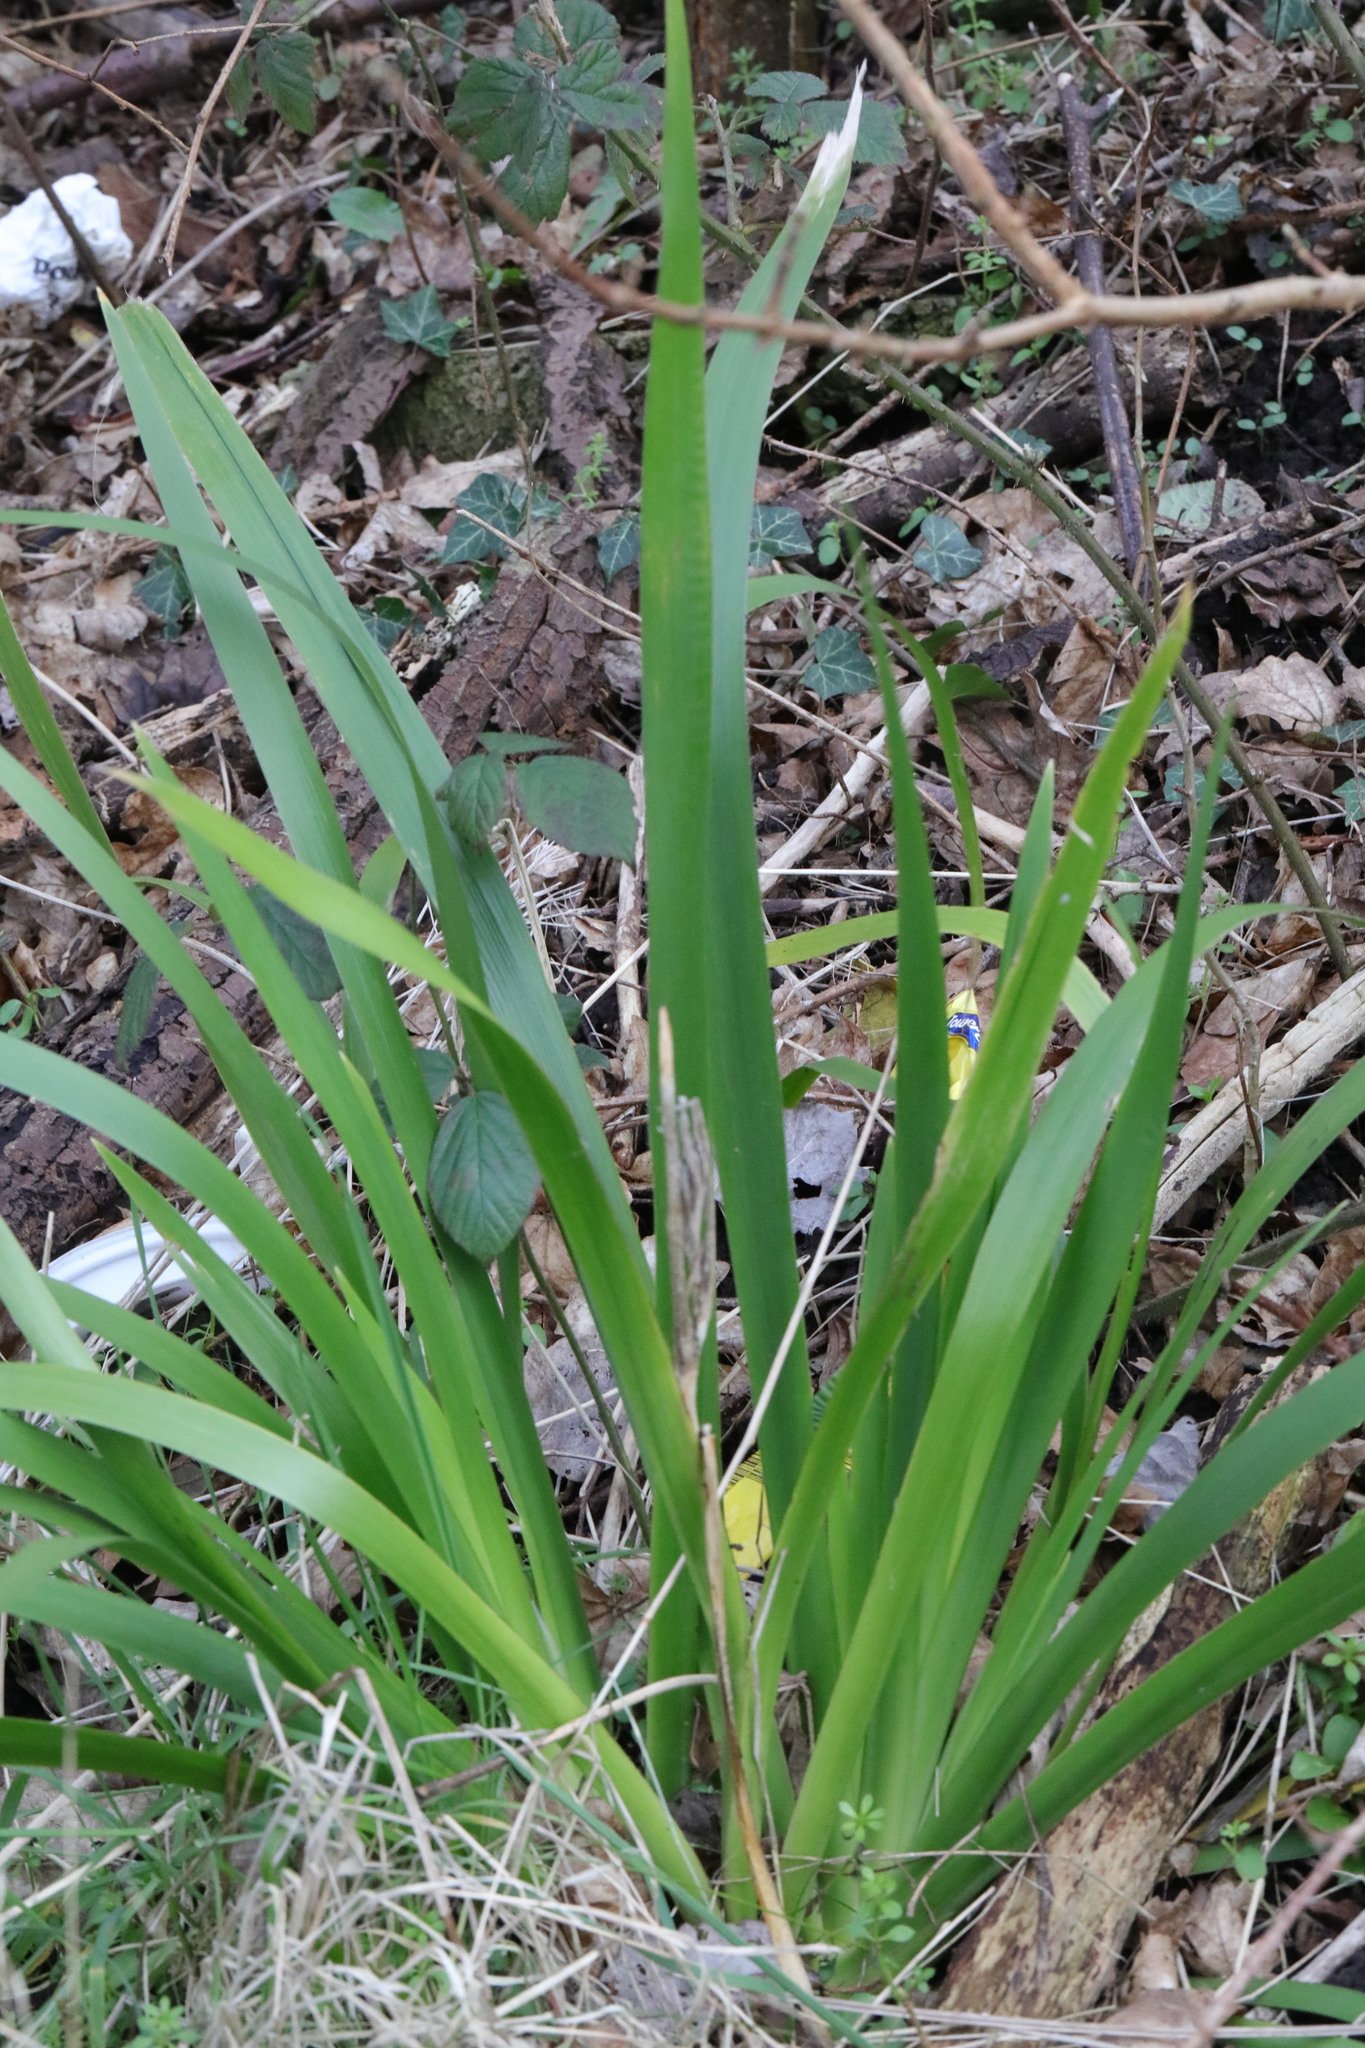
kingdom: Plantae
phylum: Tracheophyta
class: Liliopsida
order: Asparagales
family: Iridaceae
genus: Iris
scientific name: Iris foetidissima
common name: Stinking iris
